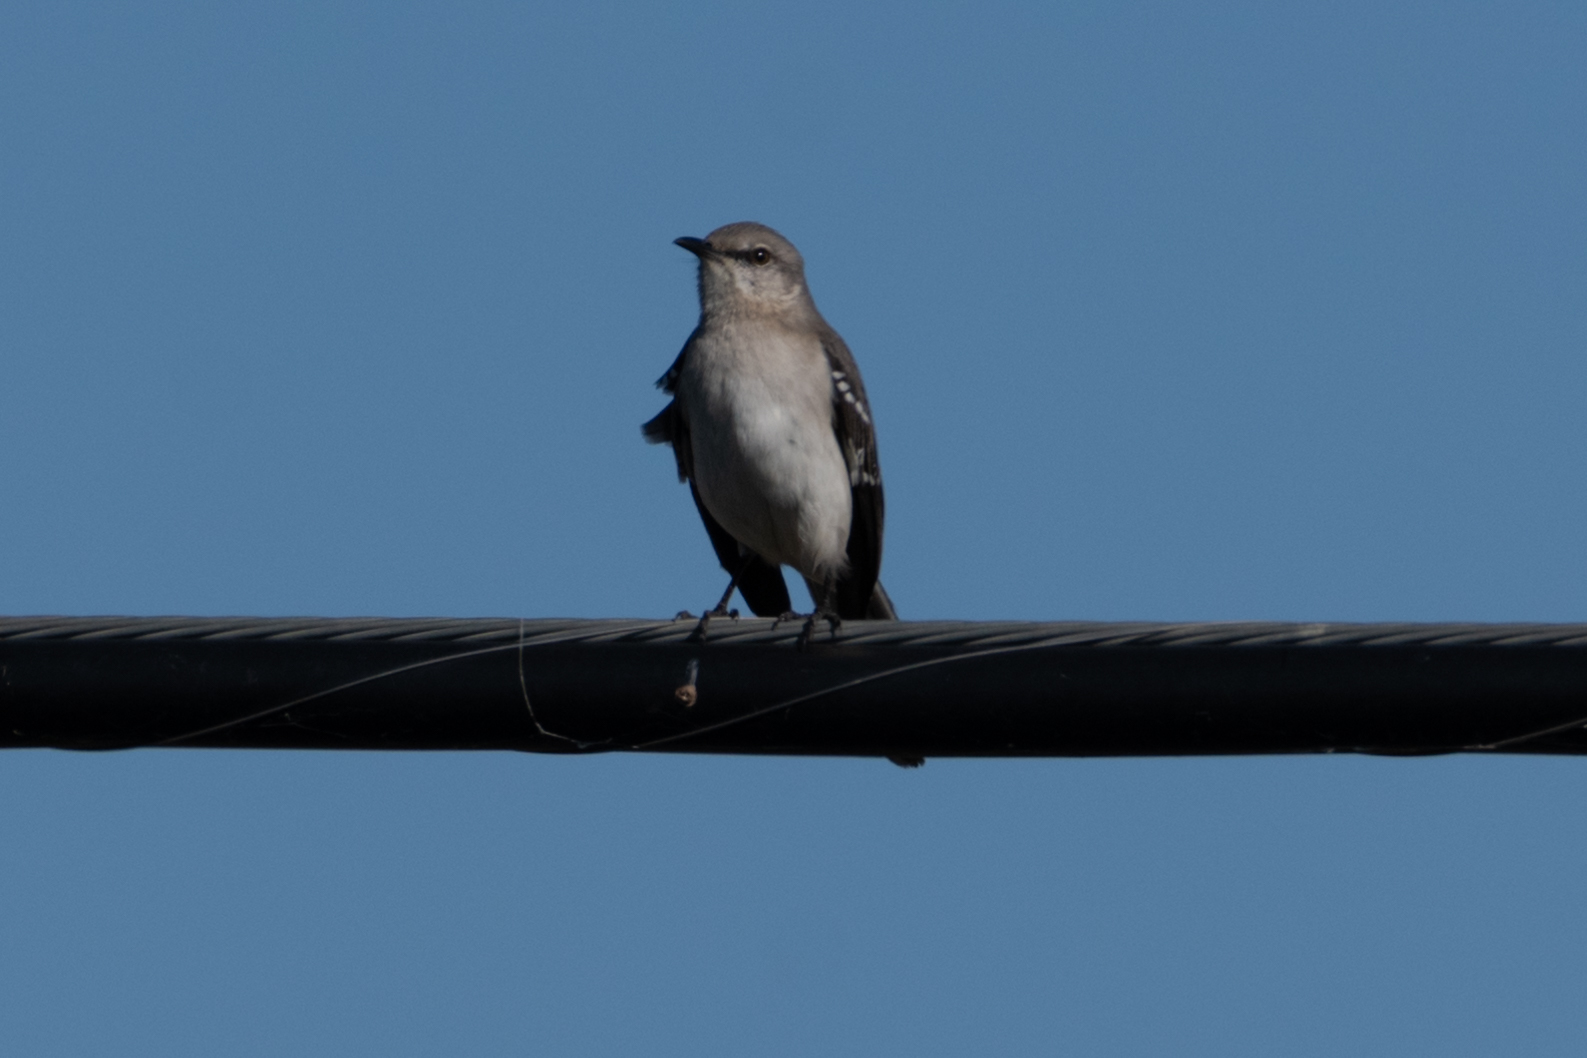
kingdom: Animalia
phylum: Chordata
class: Aves
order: Passeriformes
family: Mimidae
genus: Mimus
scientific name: Mimus polyglottos
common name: Northern mockingbird
